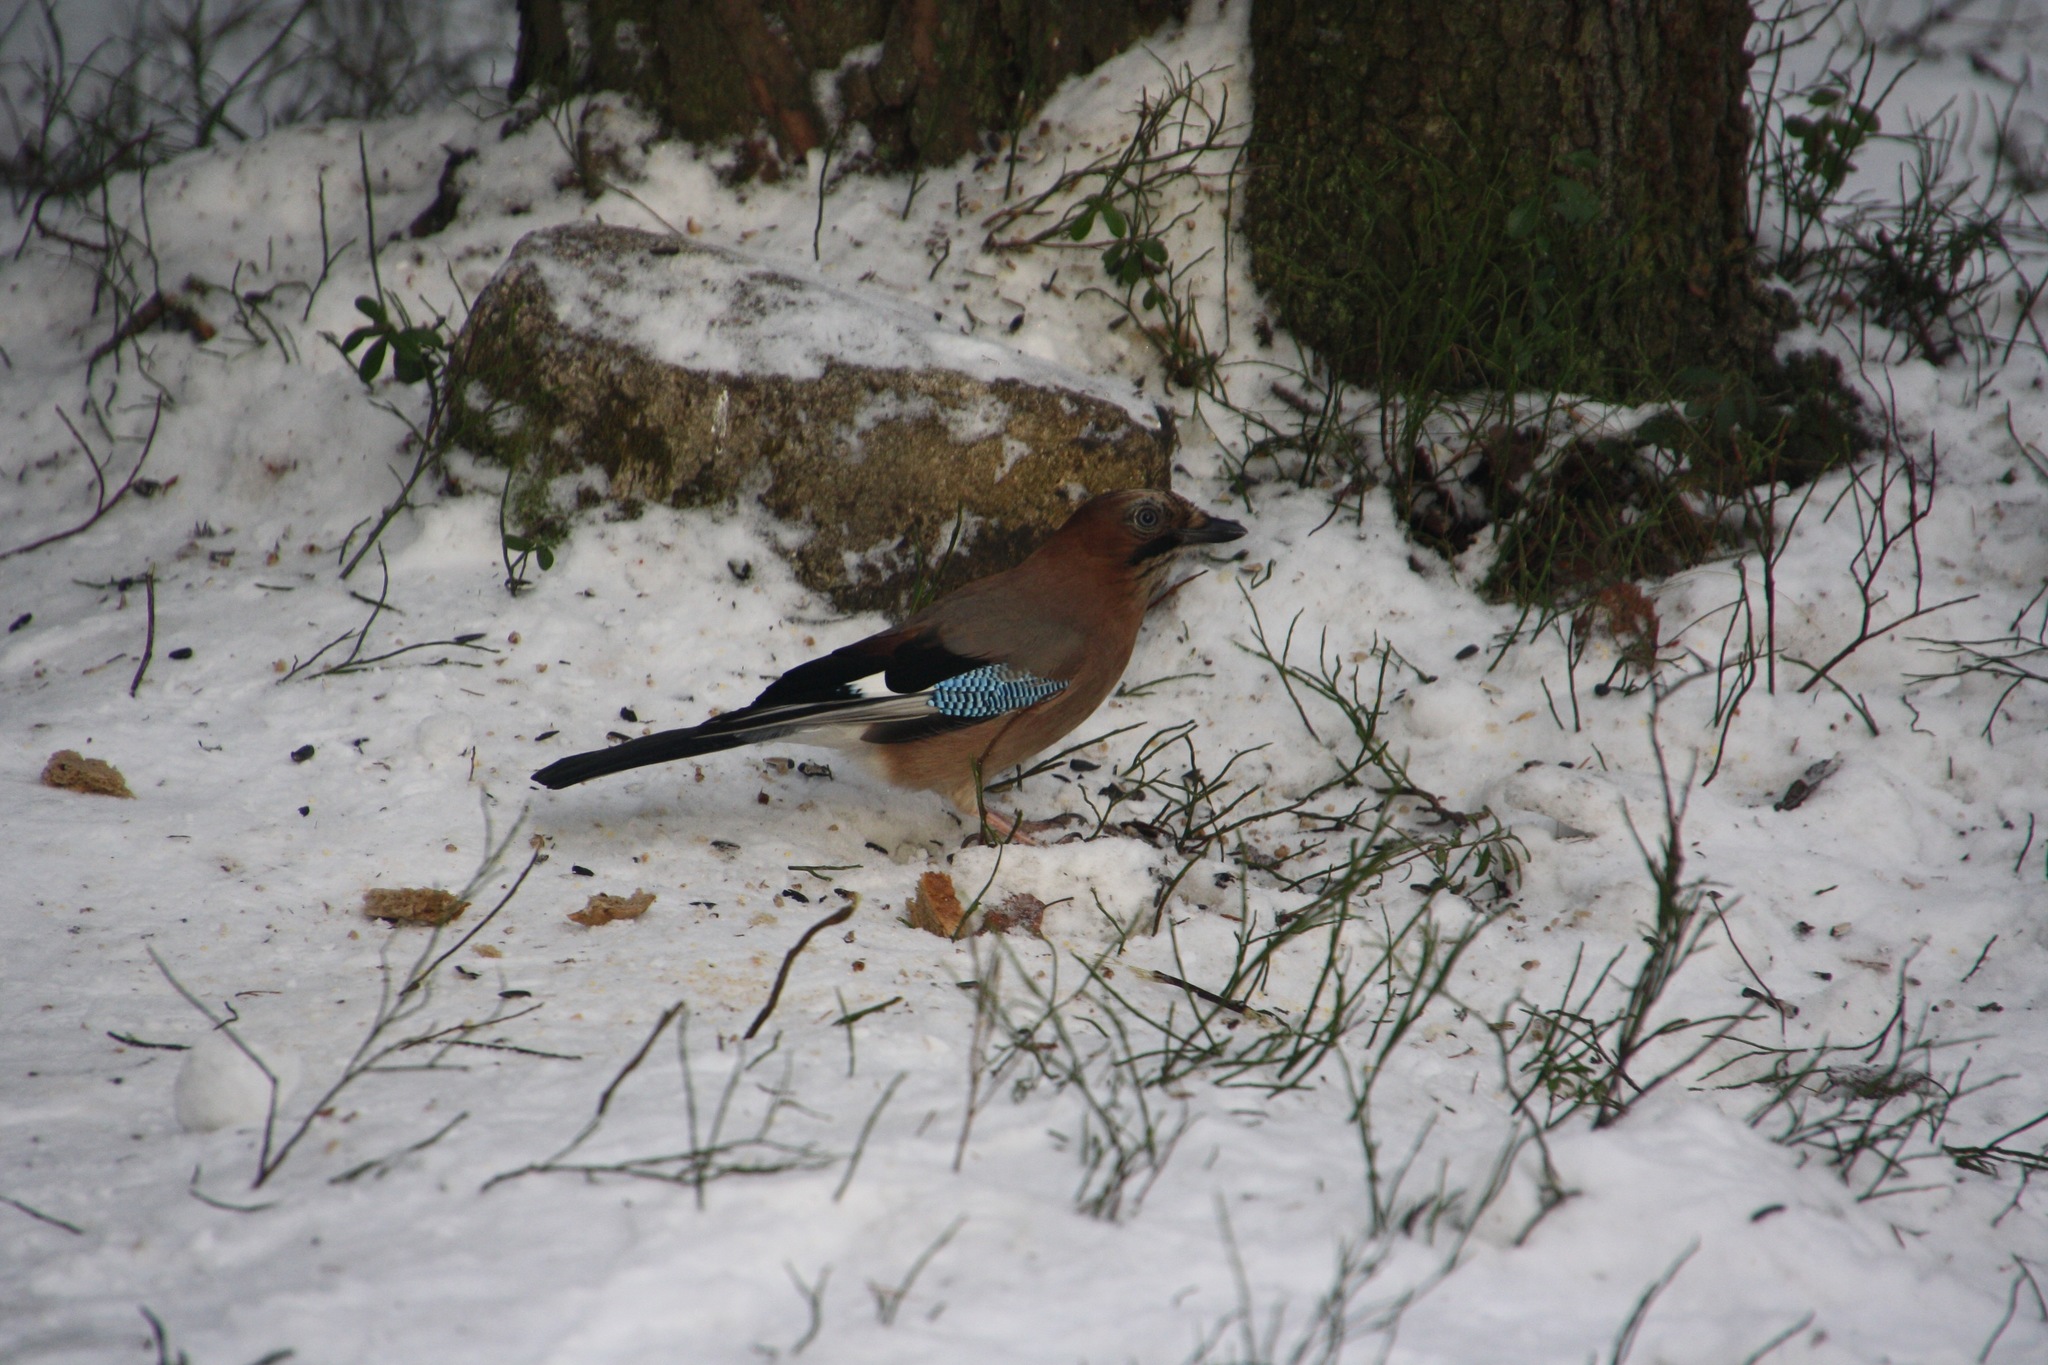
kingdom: Animalia
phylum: Chordata
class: Aves
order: Passeriformes
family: Corvidae
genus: Garrulus
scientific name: Garrulus glandarius
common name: Eurasian jay
